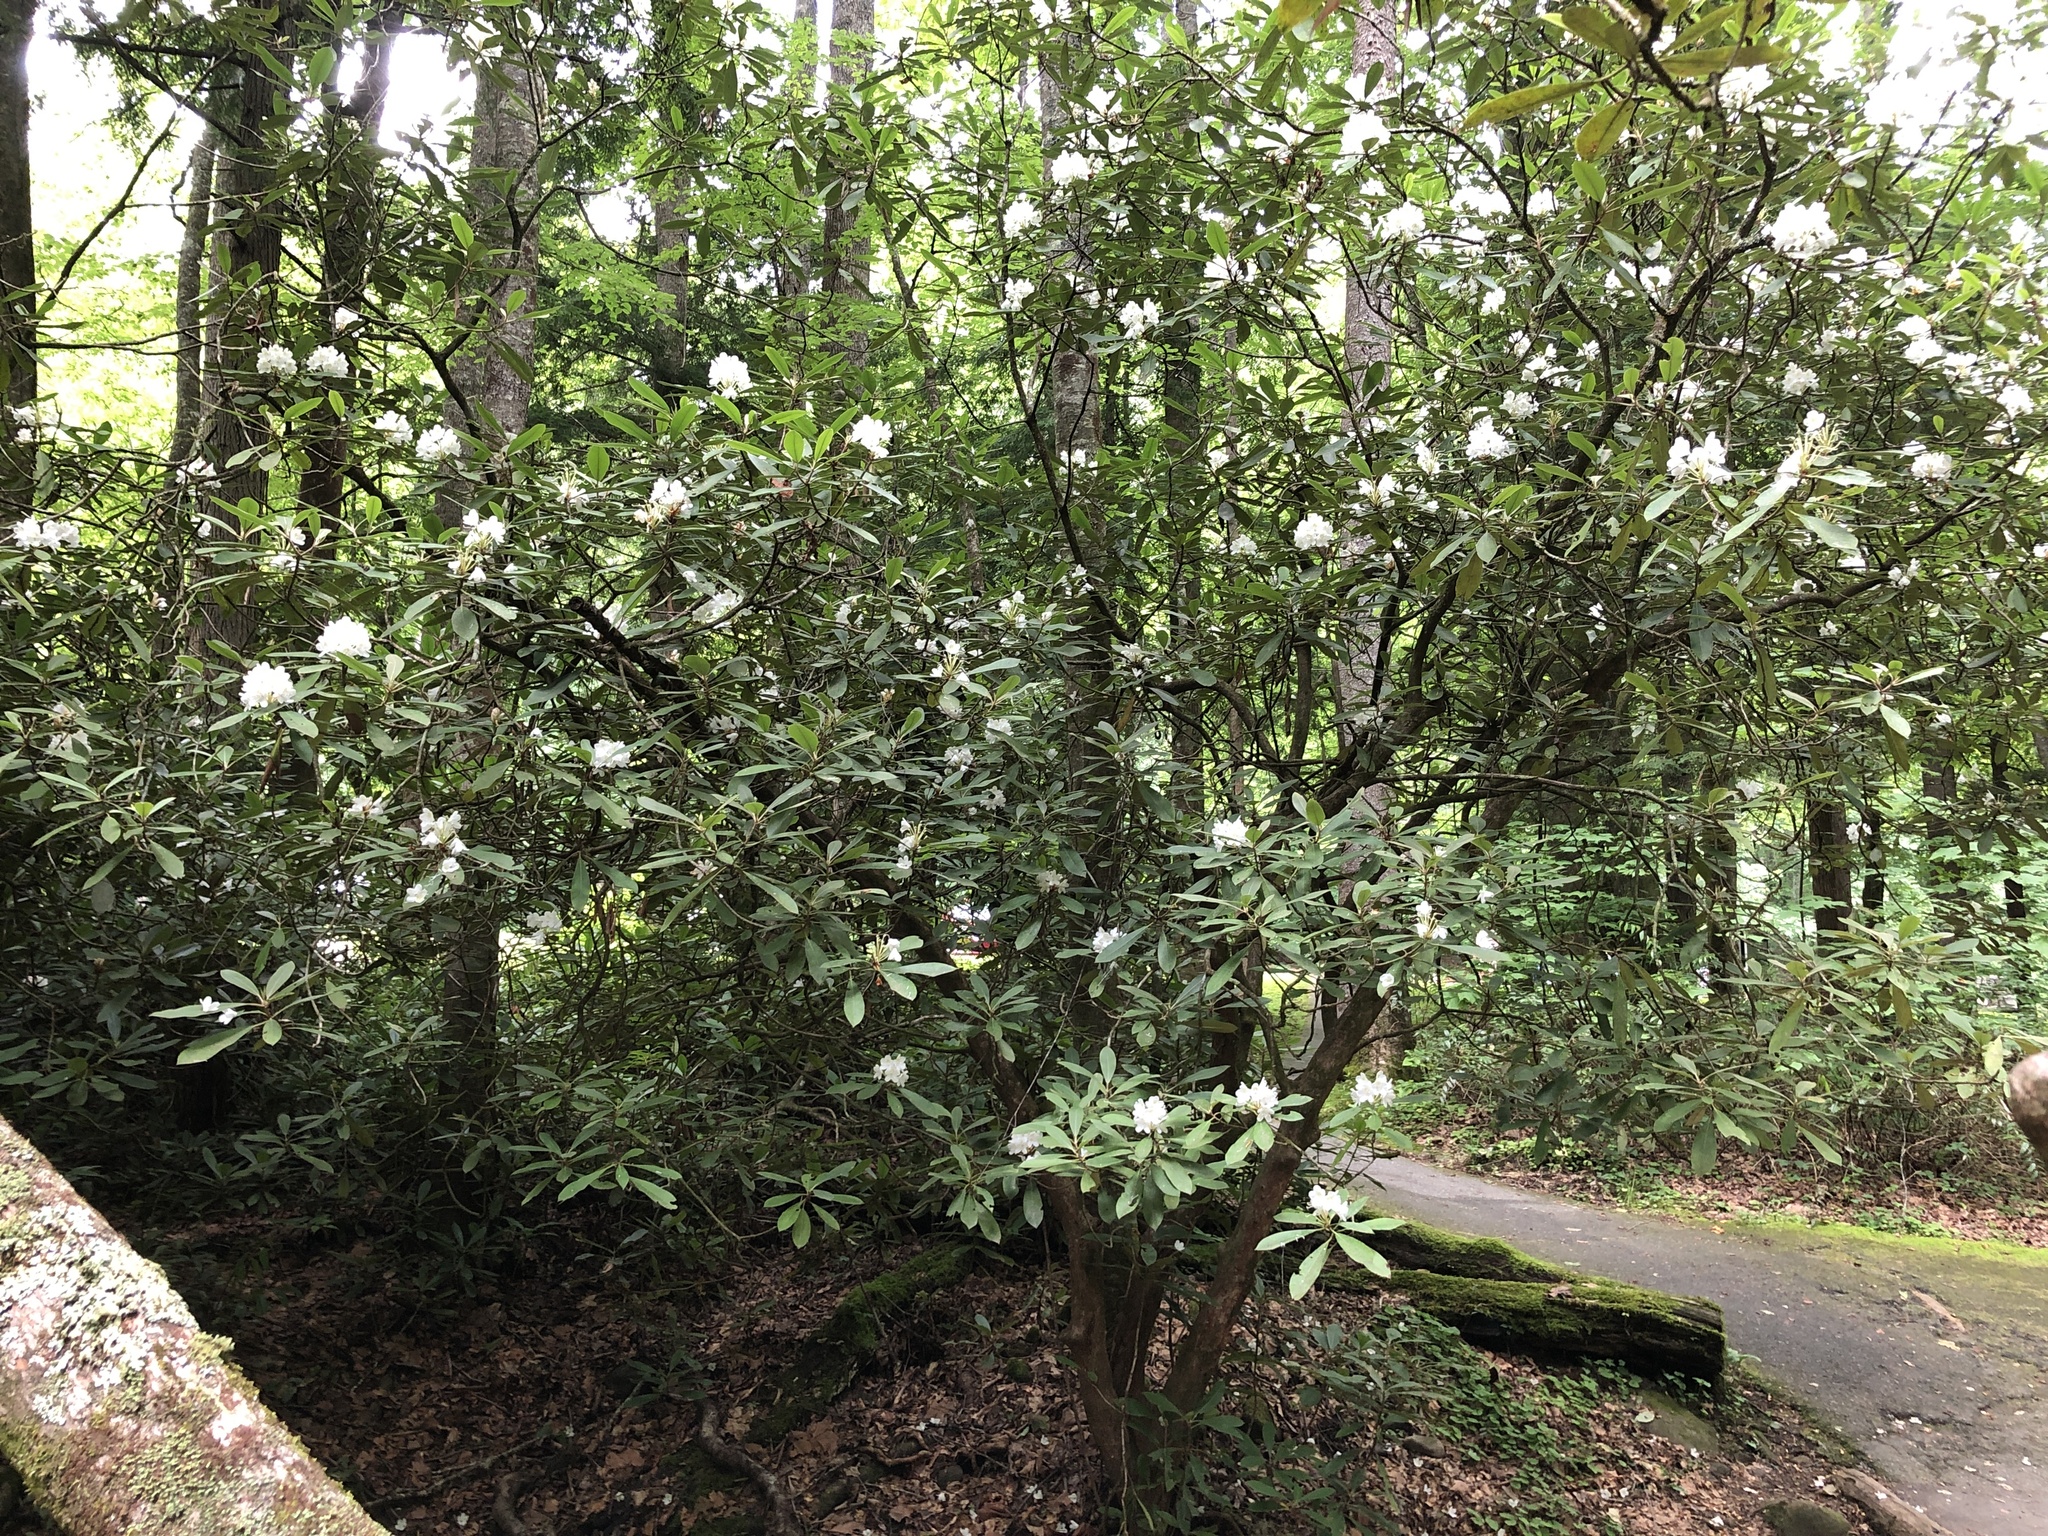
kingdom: Plantae
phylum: Tracheophyta
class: Magnoliopsida
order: Ericales
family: Ericaceae
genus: Rhododendron
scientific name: Rhododendron maximum
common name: Great rhododendron
